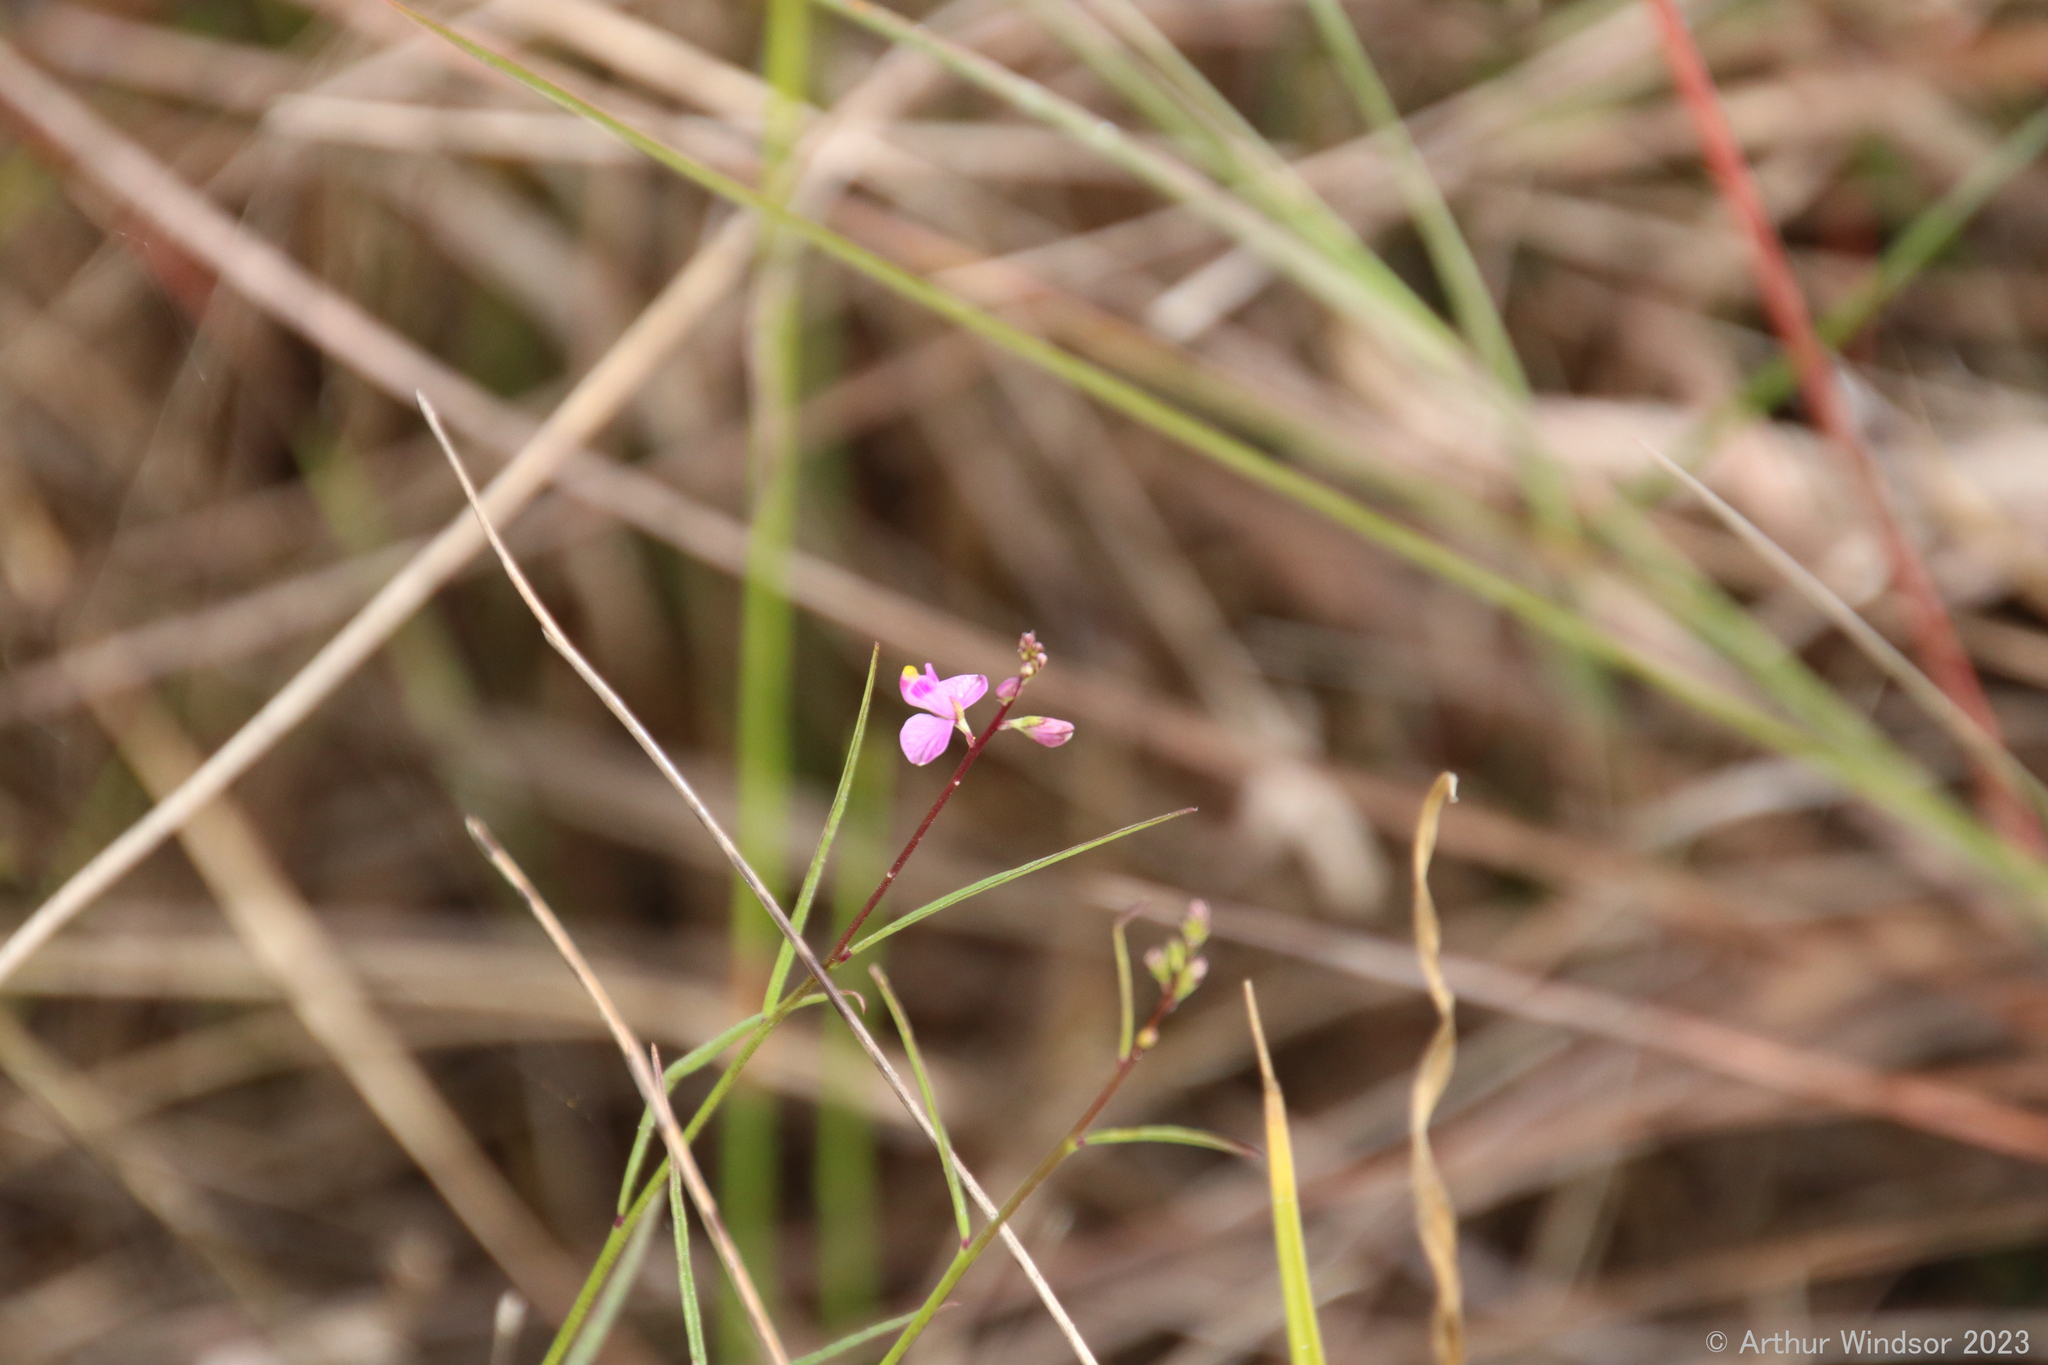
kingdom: Plantae
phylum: Tracheophyta
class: Magnoliopsida
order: Fabales
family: Polygalaceae
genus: Asemeia
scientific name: Asemeia grandiflora
